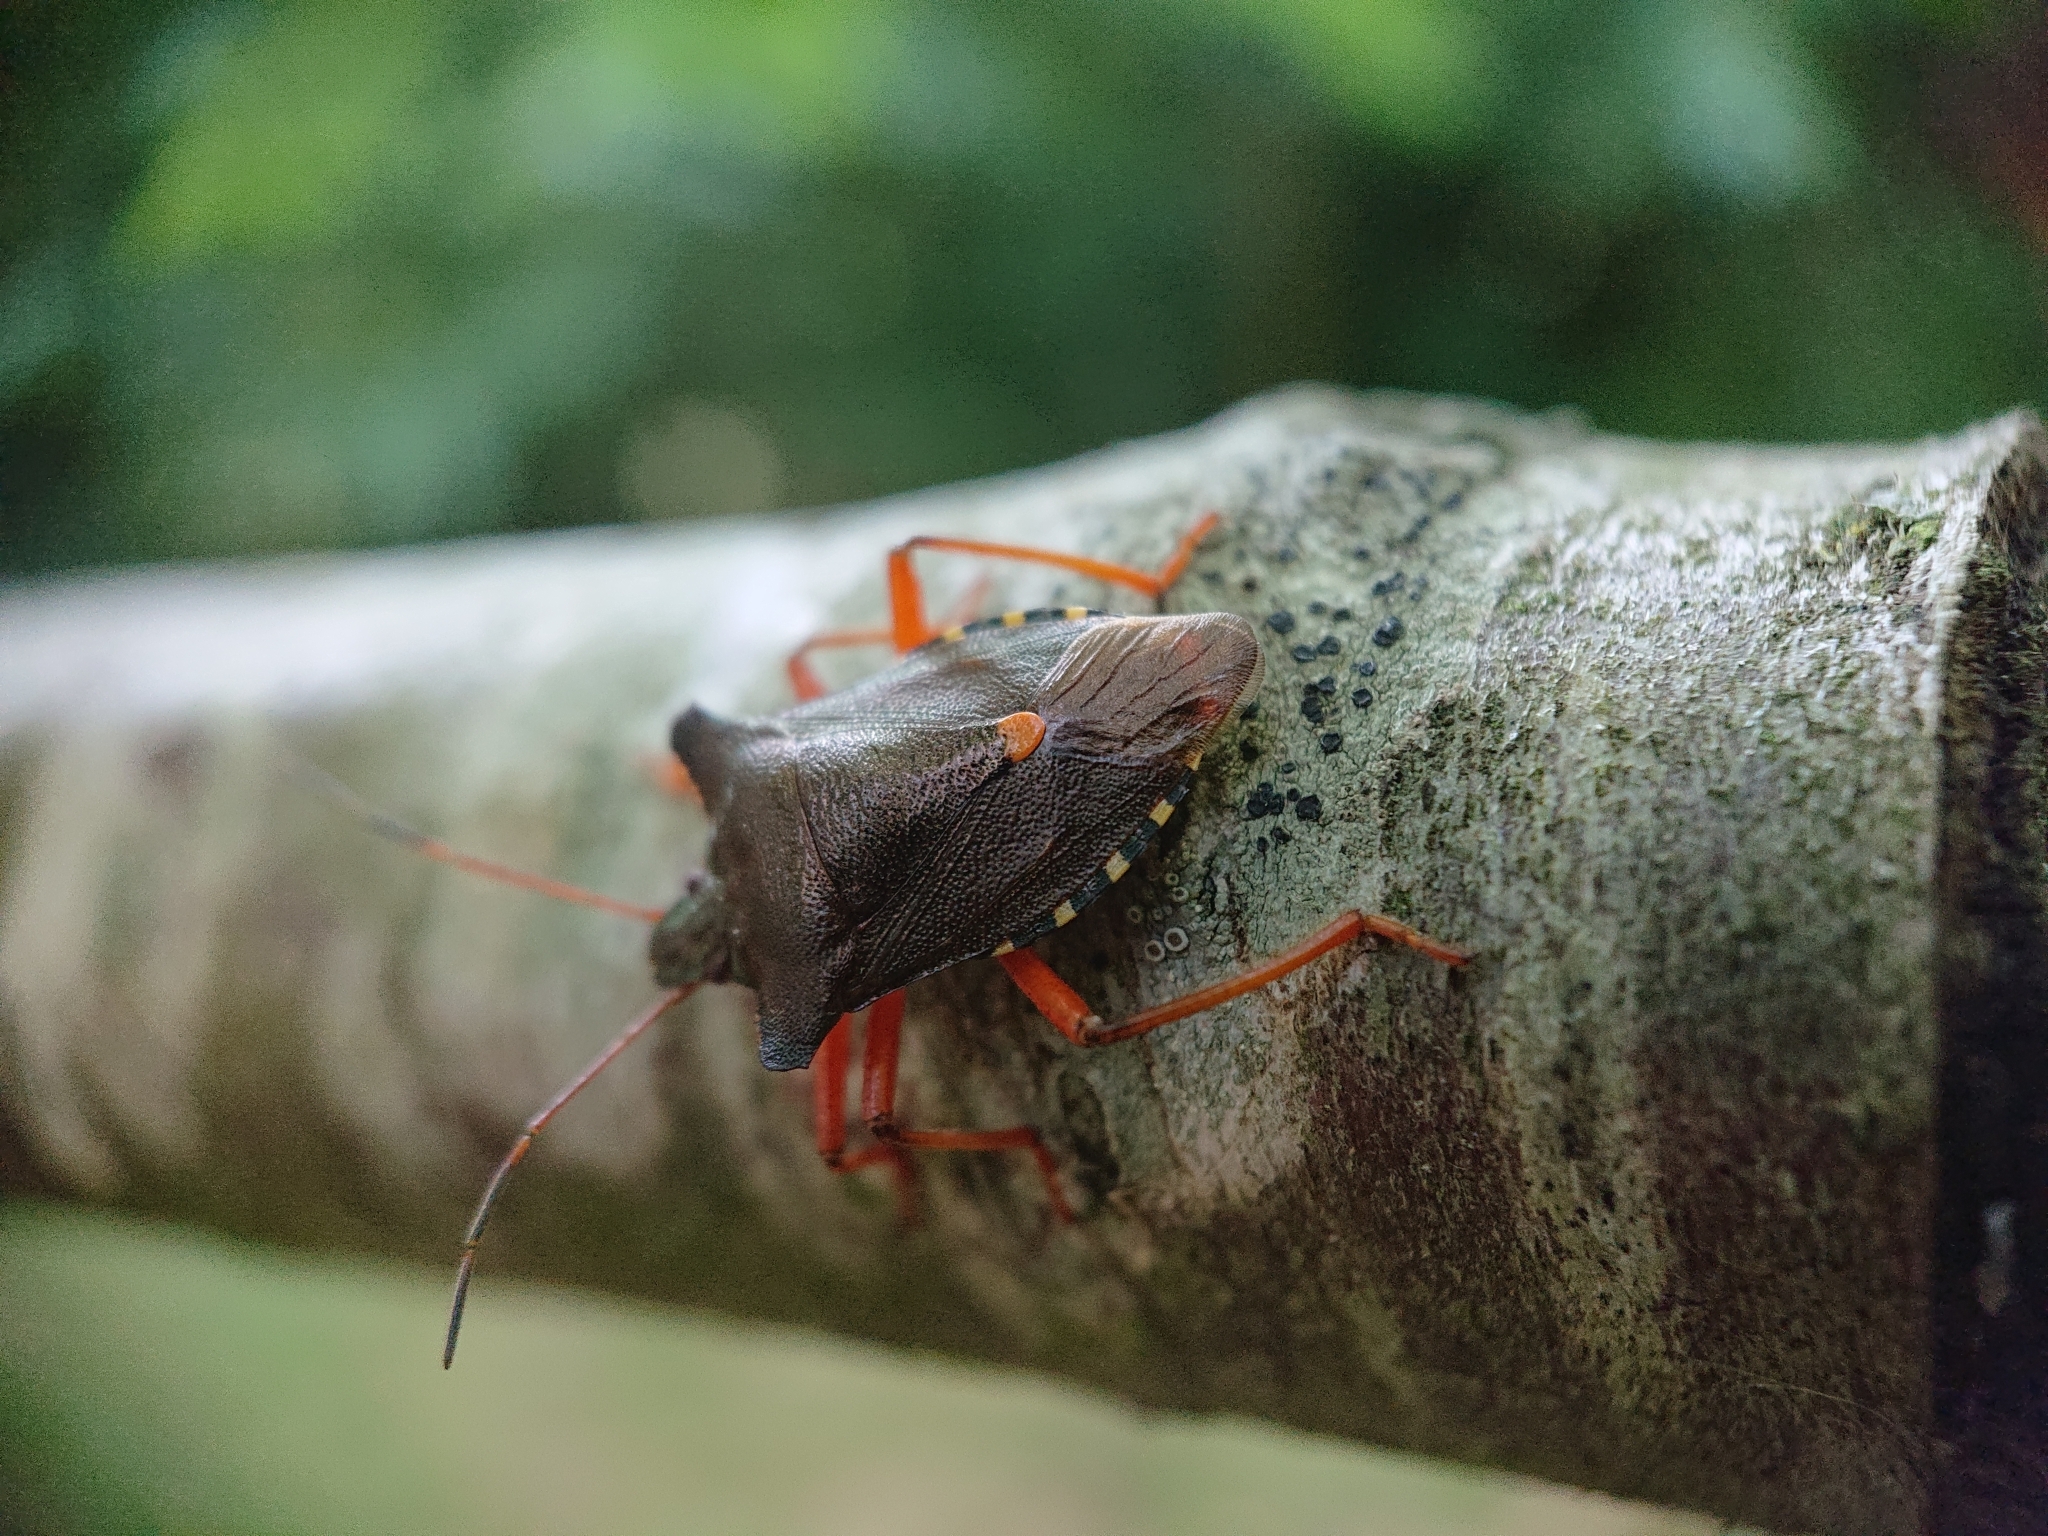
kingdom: Animalia
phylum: Arthropoda
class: Insecta
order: Hemiptera
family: Pentatomidae
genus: Pentatoma
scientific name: Pentatoma rufipes
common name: Forest bug
